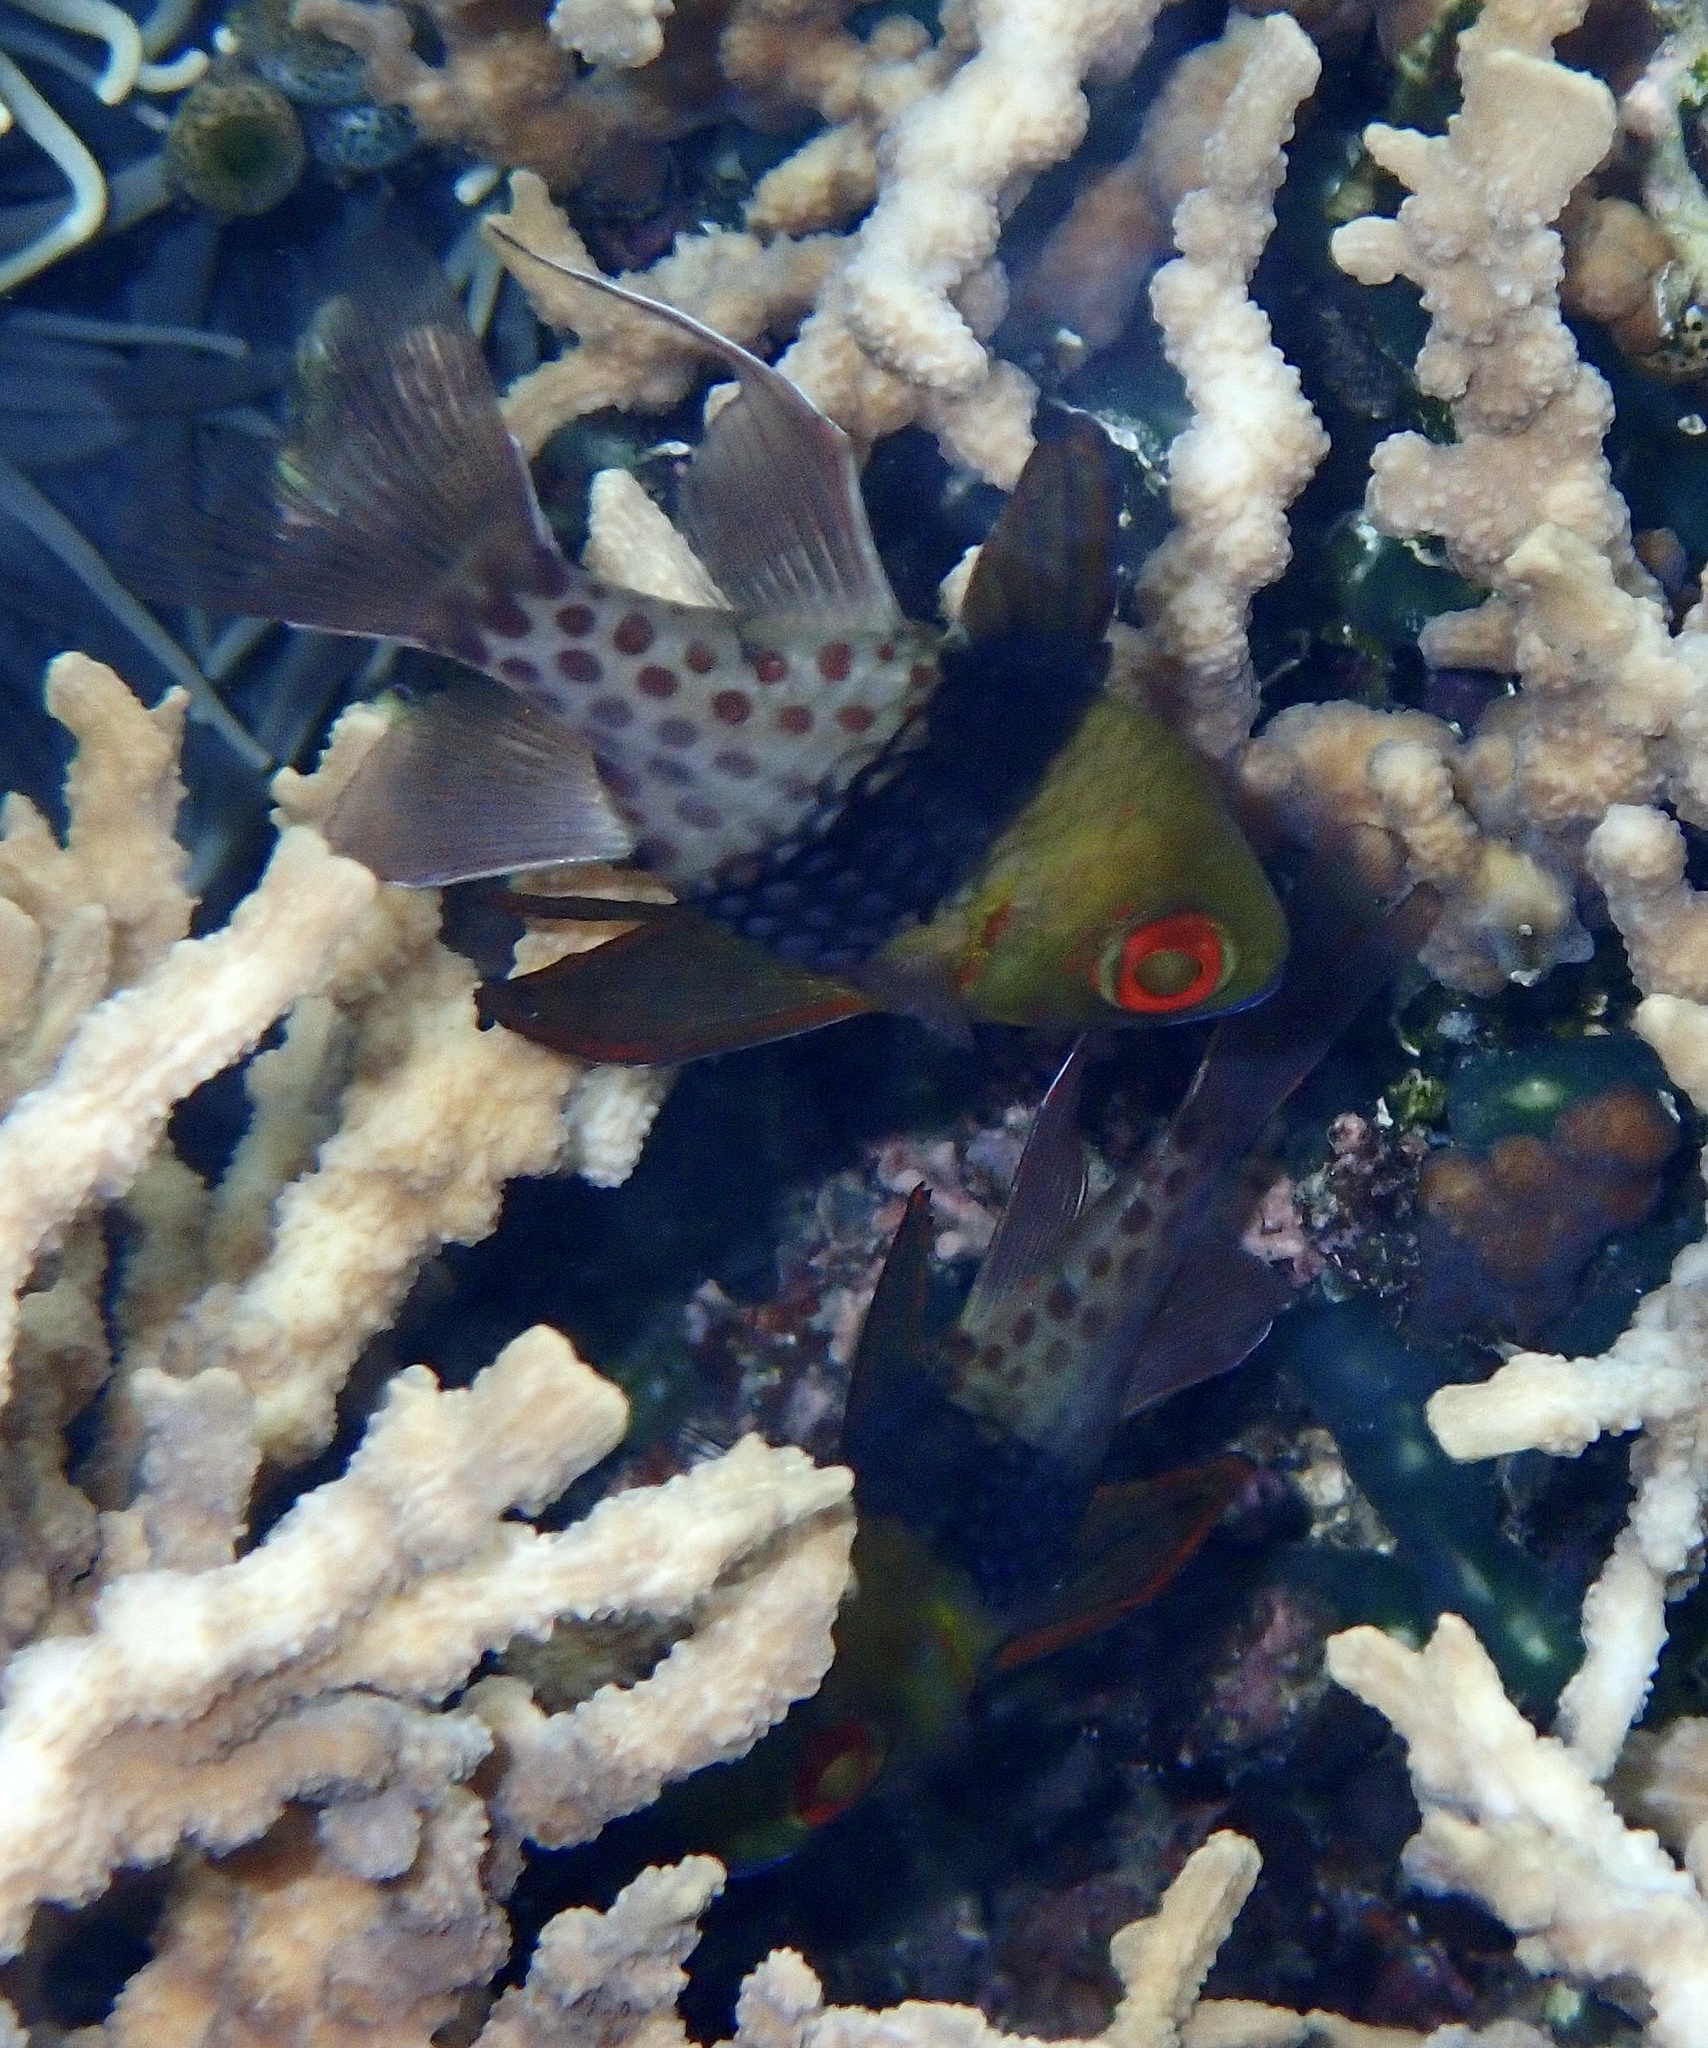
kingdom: Animalia
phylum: Chordata
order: Perciformes
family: Apogonidae
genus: Sphaeramia
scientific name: Sphaeramia nematoptera
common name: Pajama cardinalfish
